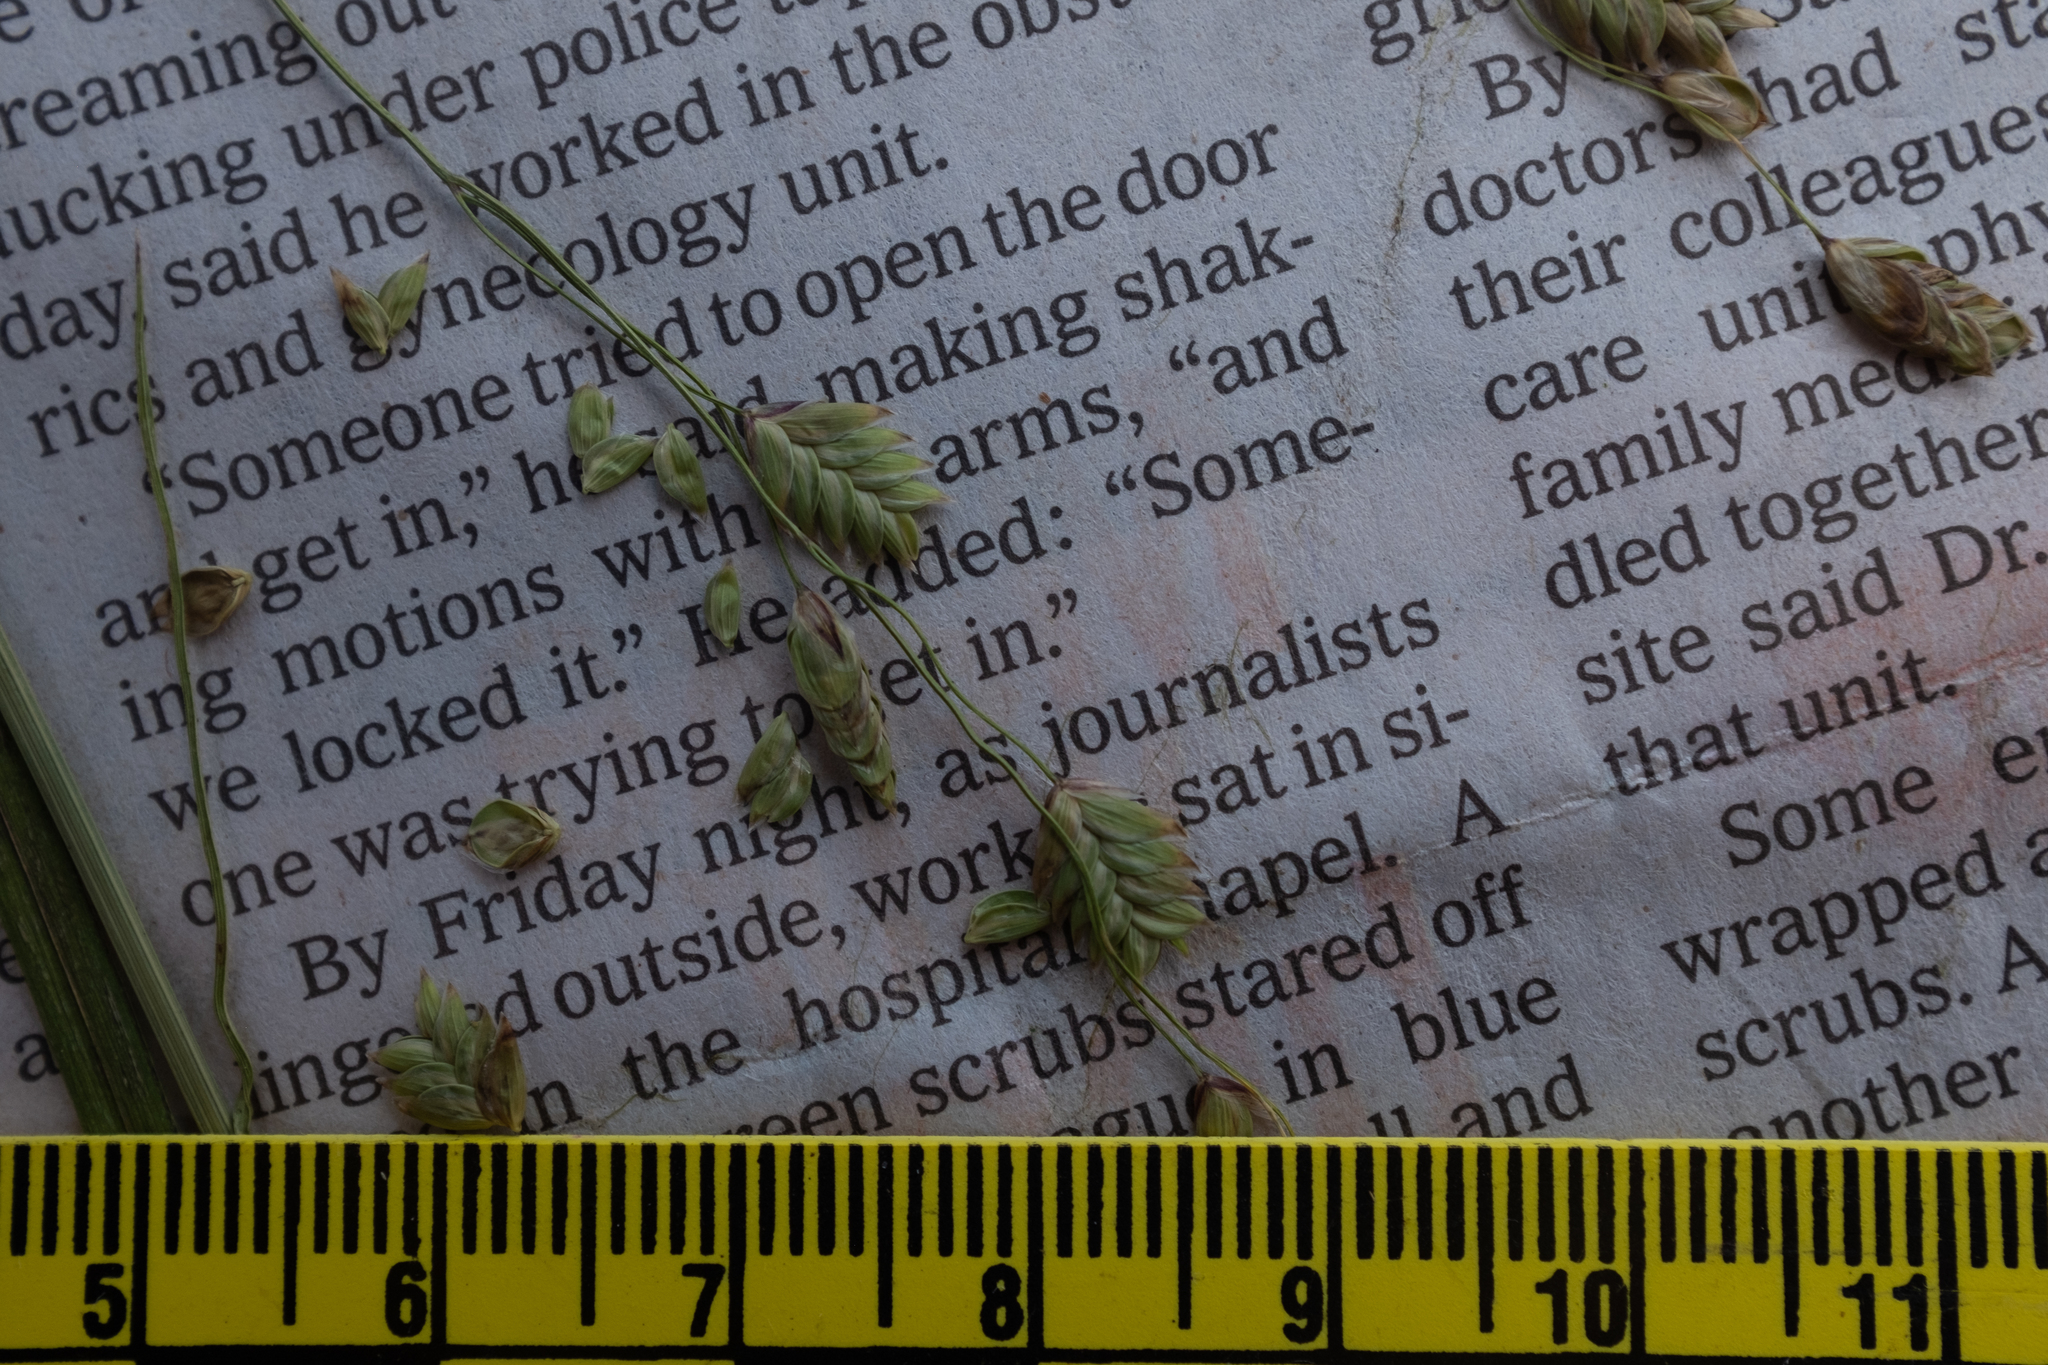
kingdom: Plantae
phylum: Tracheophyta
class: Liliopsida
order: Poales
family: Poaceae
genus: Glyceria
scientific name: Glyceria canadensis
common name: Canada mannagrass
